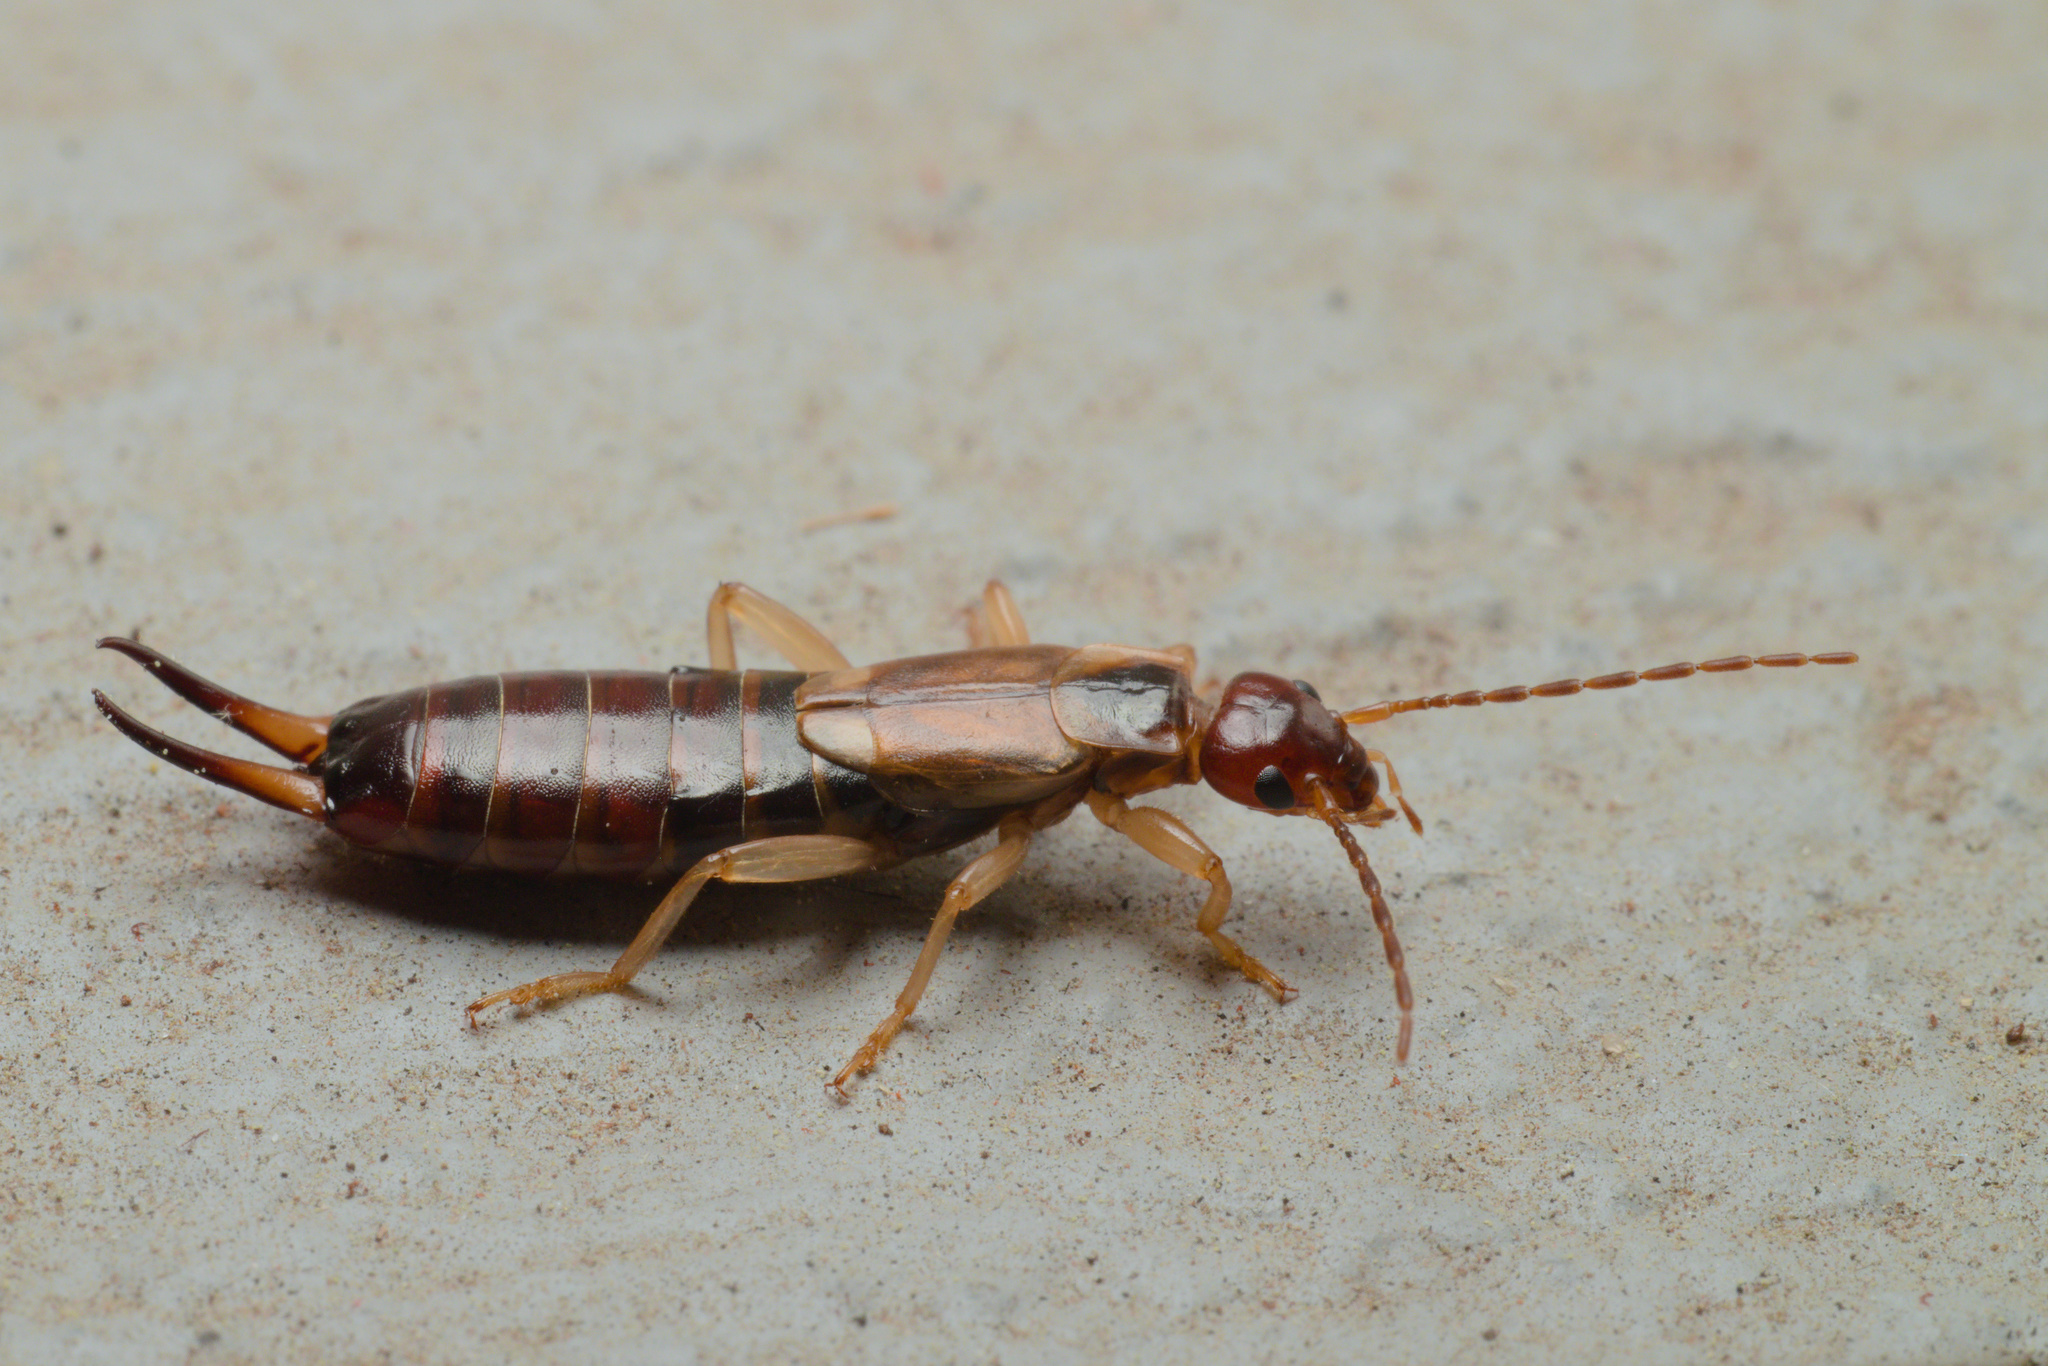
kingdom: Animalia
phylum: Arthropoda
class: Insecta
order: Dermaptera
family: Forficulidae
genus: Forficula
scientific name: Forficula
